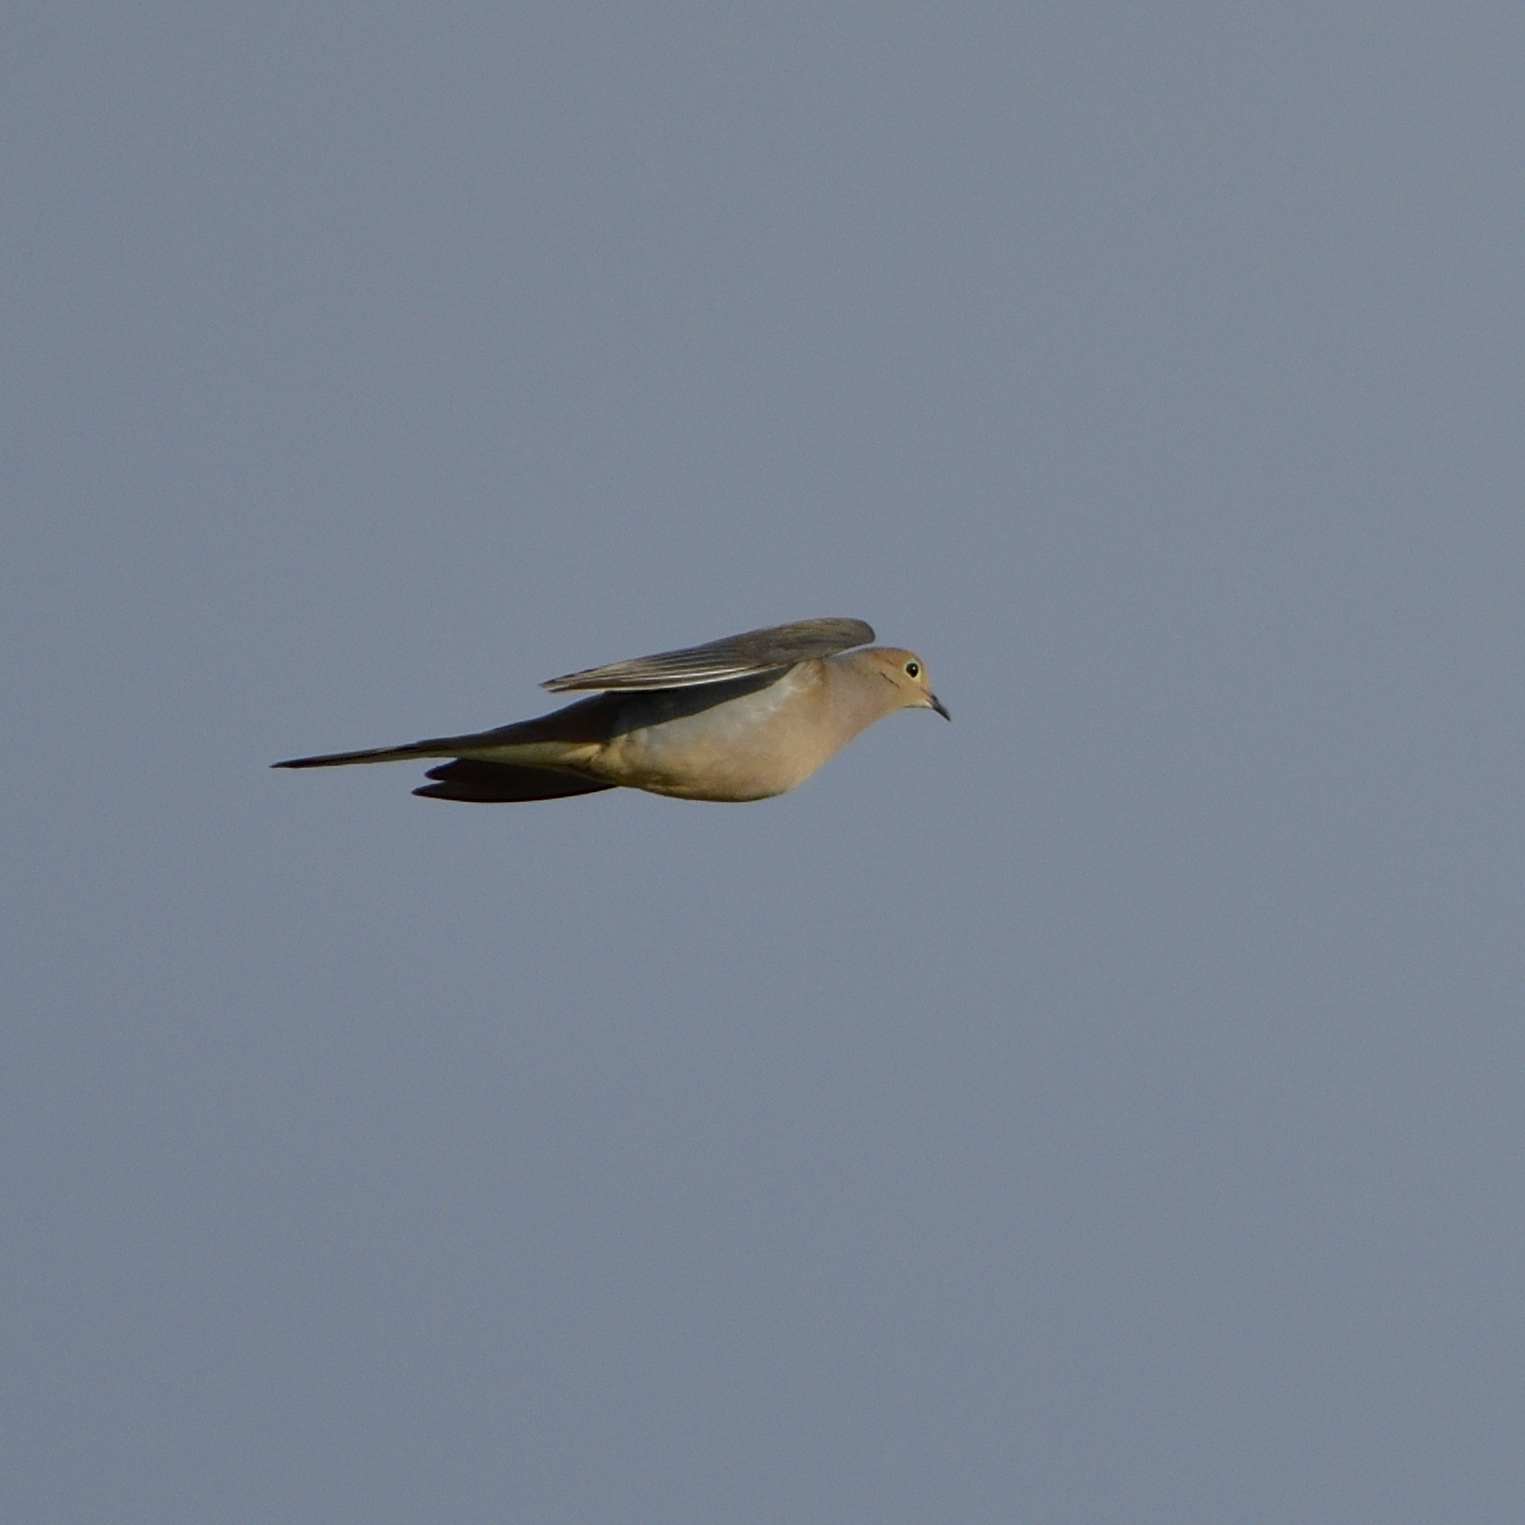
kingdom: Animalia
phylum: Chordata
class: Aves
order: Columbiformes
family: Columbidae
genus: Zenaida
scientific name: Zenaida macroura
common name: Mourning dove
